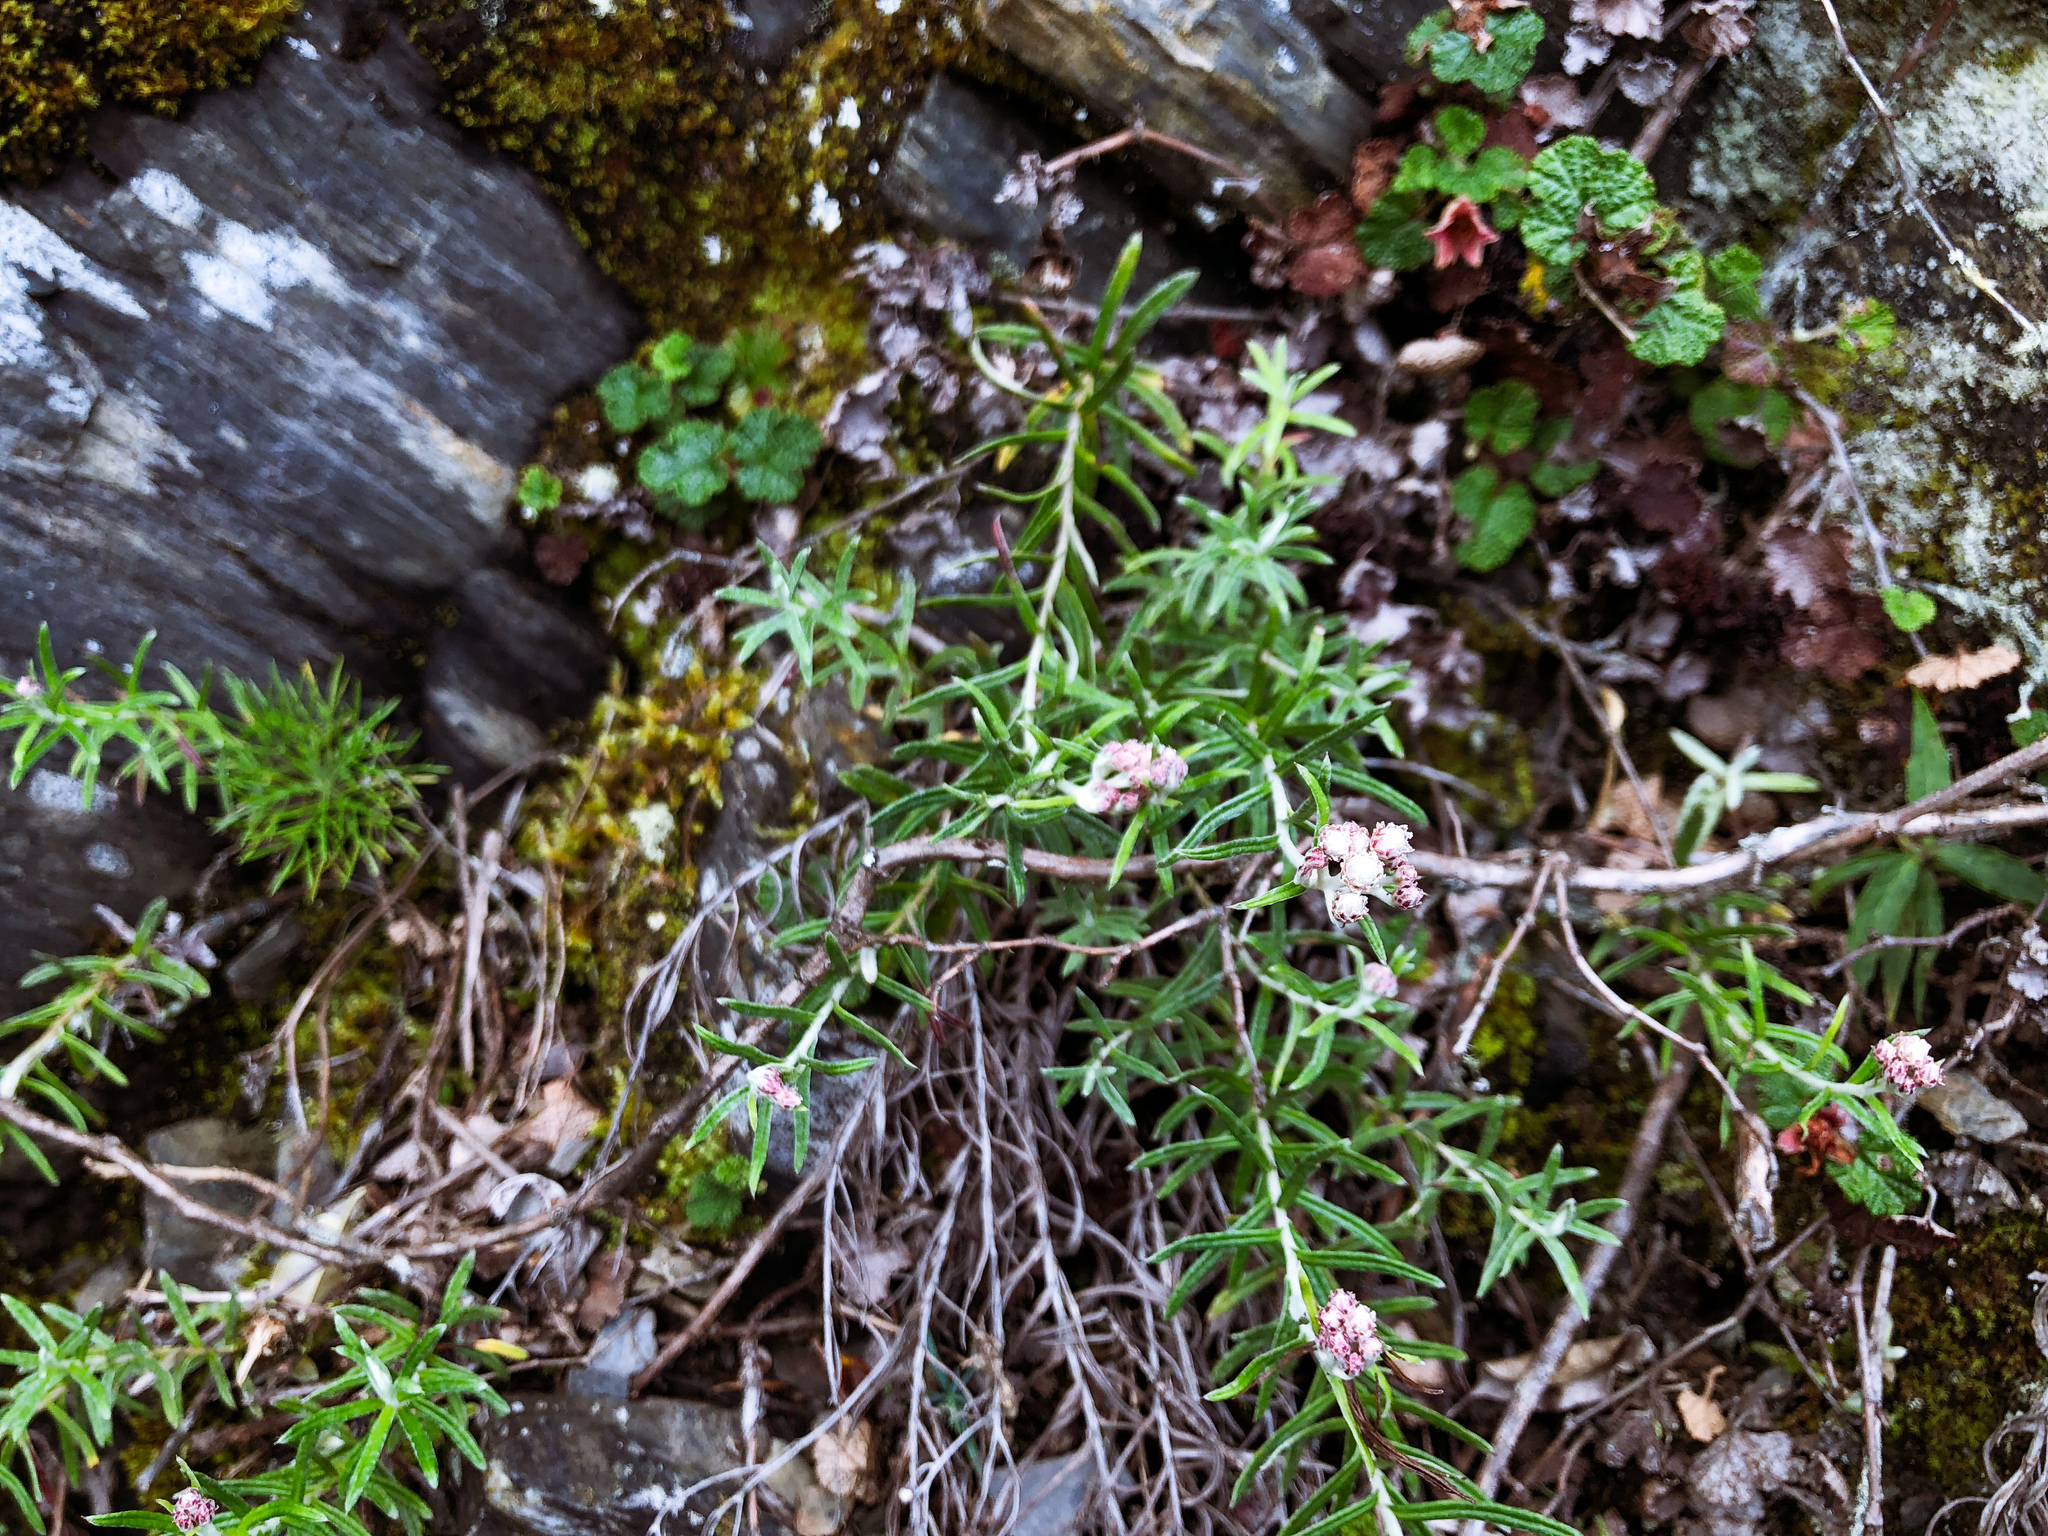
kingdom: Plantae
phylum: Tracheophyta
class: Magnoliopsida
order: Asterales
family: Asteraceae
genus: Anaphalis
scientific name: Anaphalis morrisonicola
